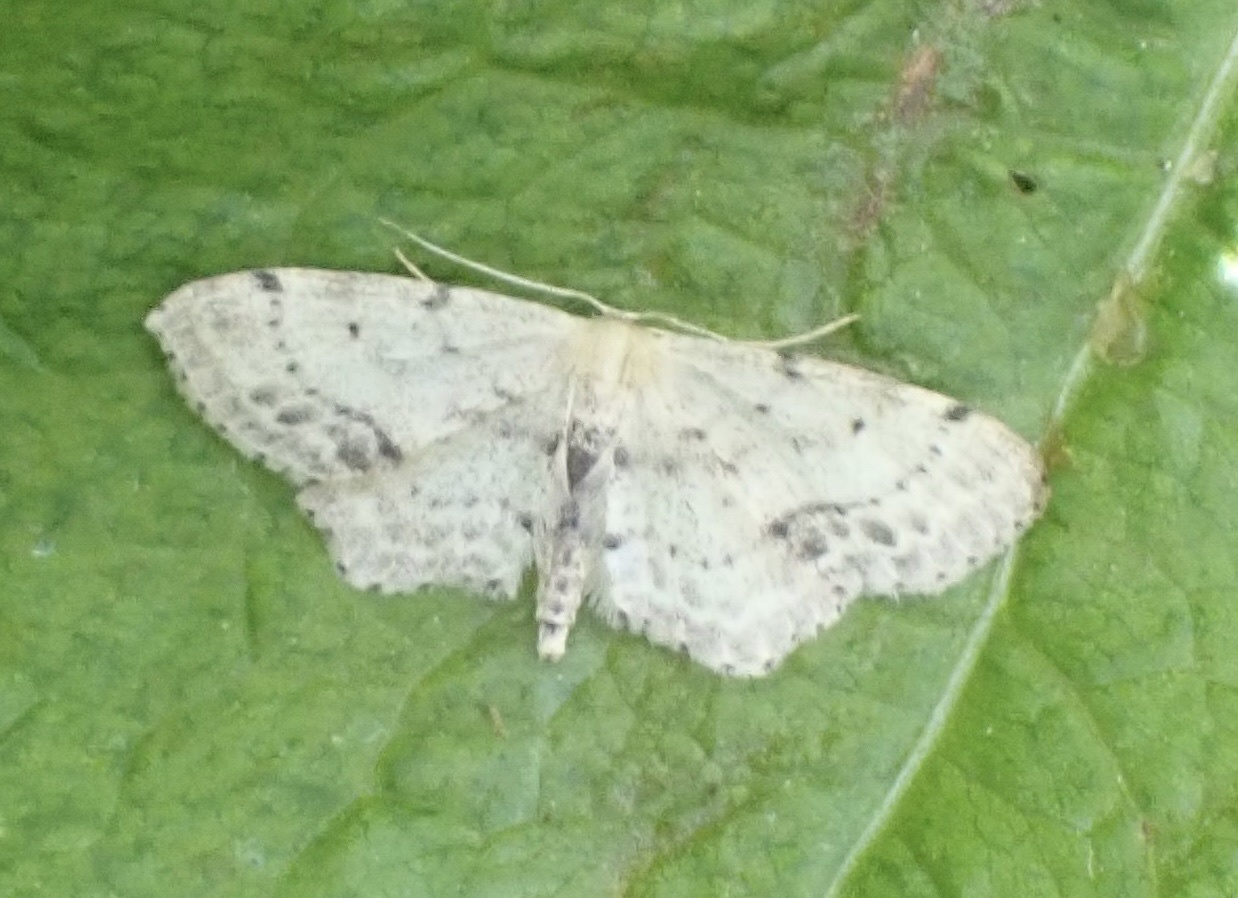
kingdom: Animalia
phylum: Arthropoda
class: Insecta
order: Lepidoptera
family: Geometridae
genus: Idaea
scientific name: Idaea dimidiata
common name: Single-dotted wave
